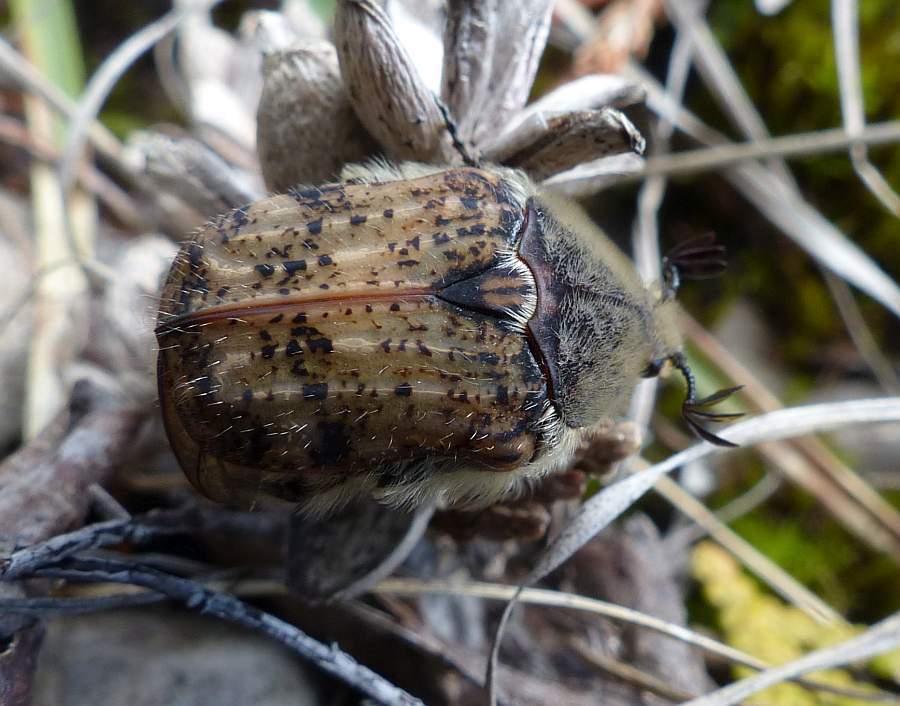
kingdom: Animalia
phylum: Arthropoda
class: Insecta
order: Coleoptera
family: Scarabaeidae
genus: Euphoria
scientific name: Euphoria inda
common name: Bumble flower beetle
